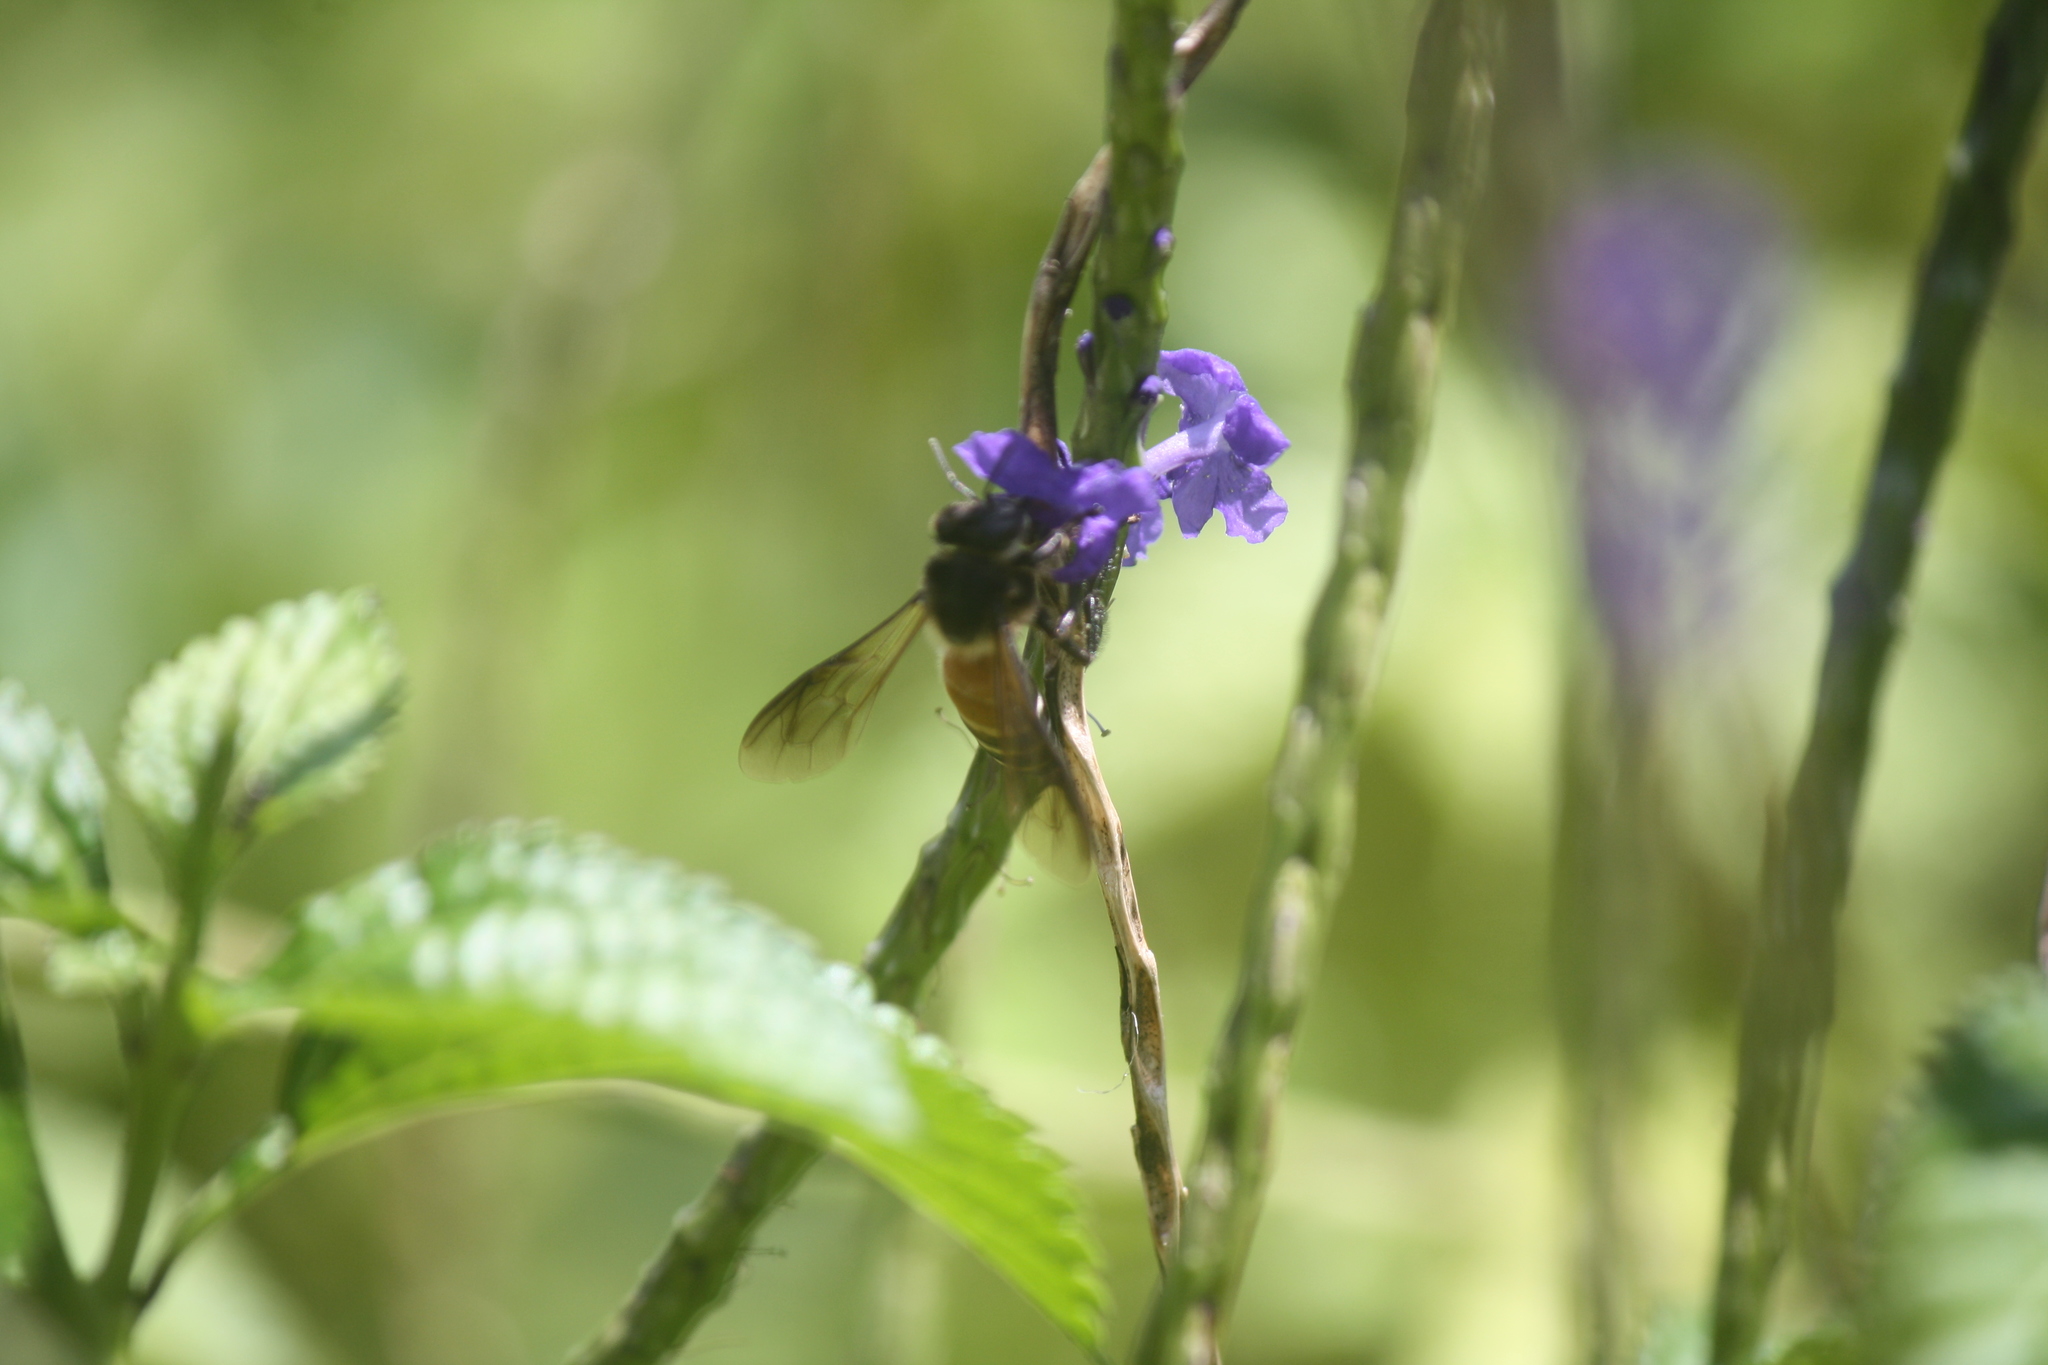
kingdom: Animalia
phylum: Arthropoda
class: Insecta
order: Hymenoptera
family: Apidae
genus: Apis
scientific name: Apis dorsata
